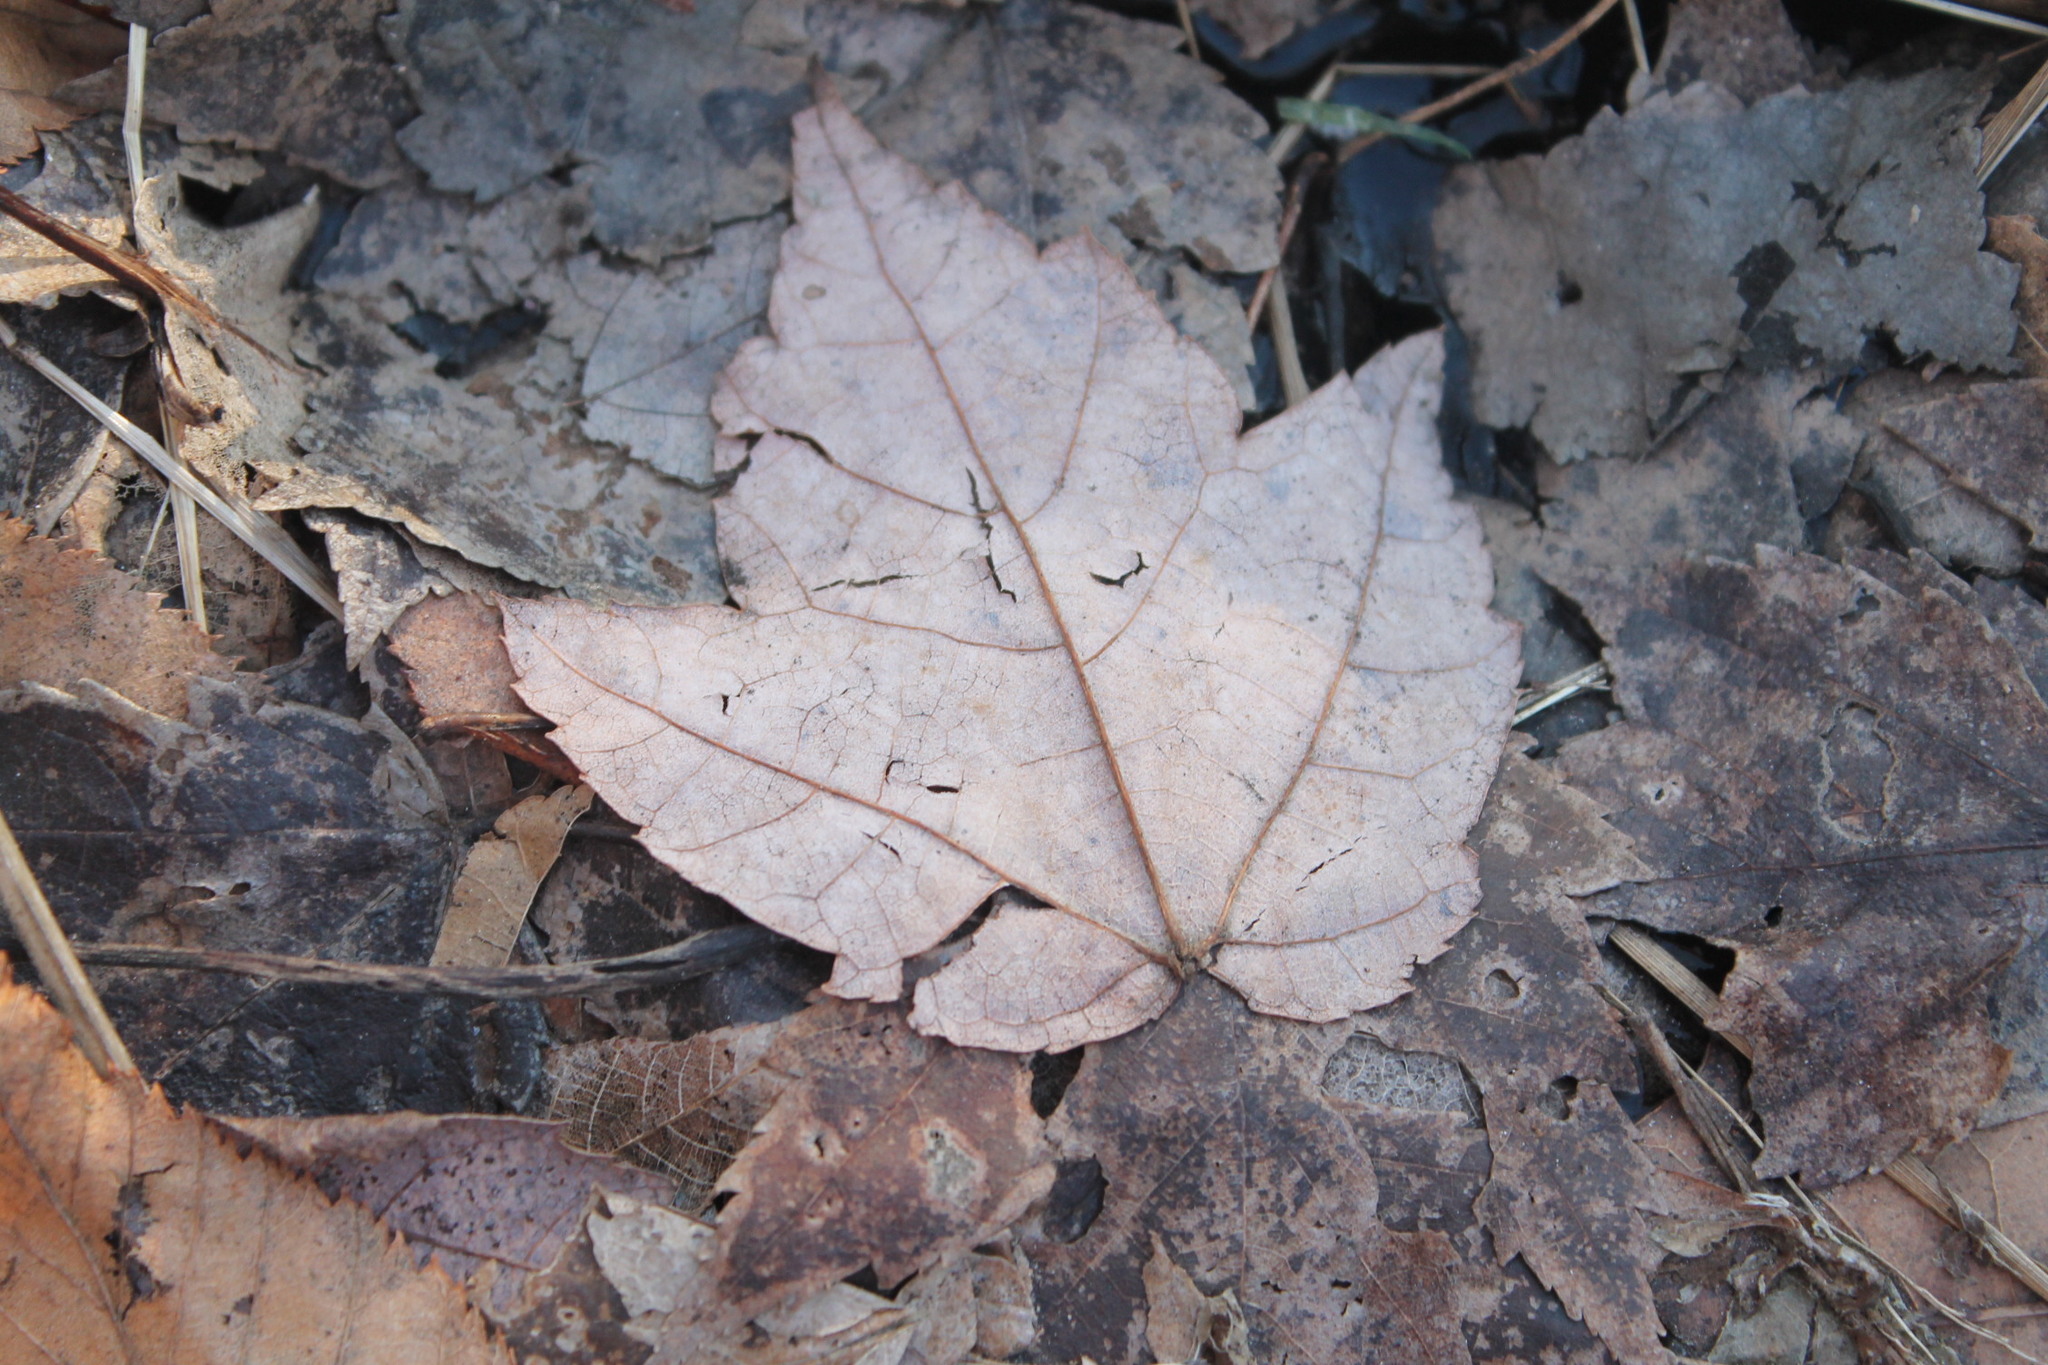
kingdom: Plantae
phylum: Tracheophyta
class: Magnoliopsida
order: Sapindales
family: Sapindaceae
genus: Acer
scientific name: Acer rubrum
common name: Red maple
